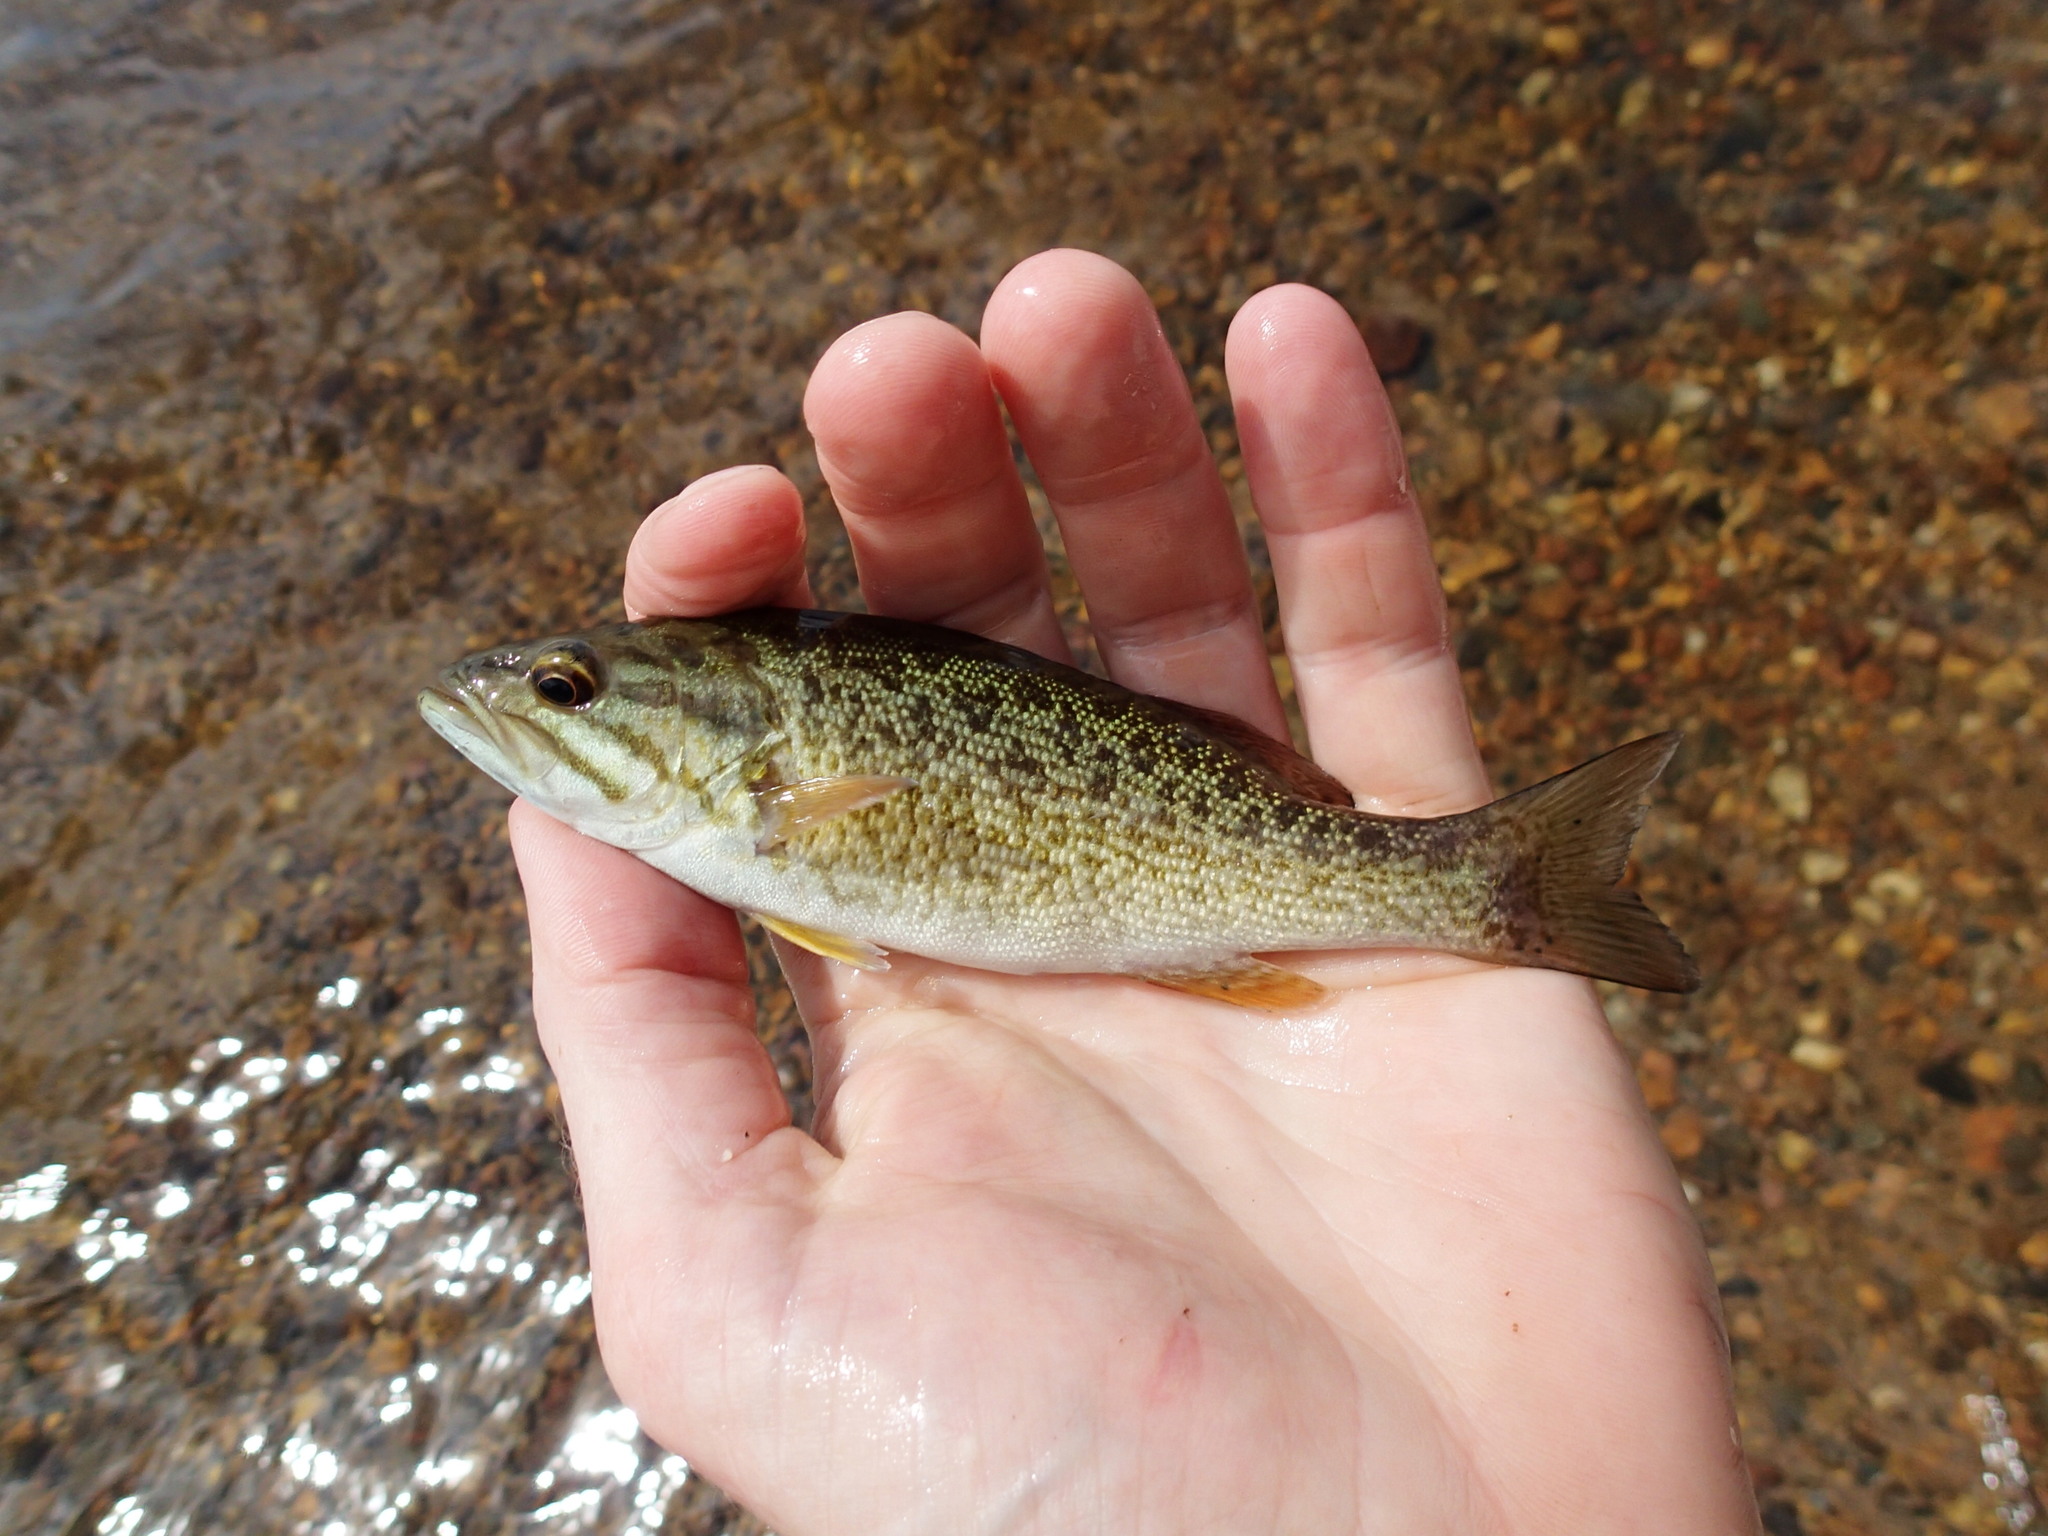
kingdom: Animalia
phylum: Chordata
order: Perciformes
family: Centrarchidae
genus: Micropterus
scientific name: Micropterus dolomieu
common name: Smallmouth bass
